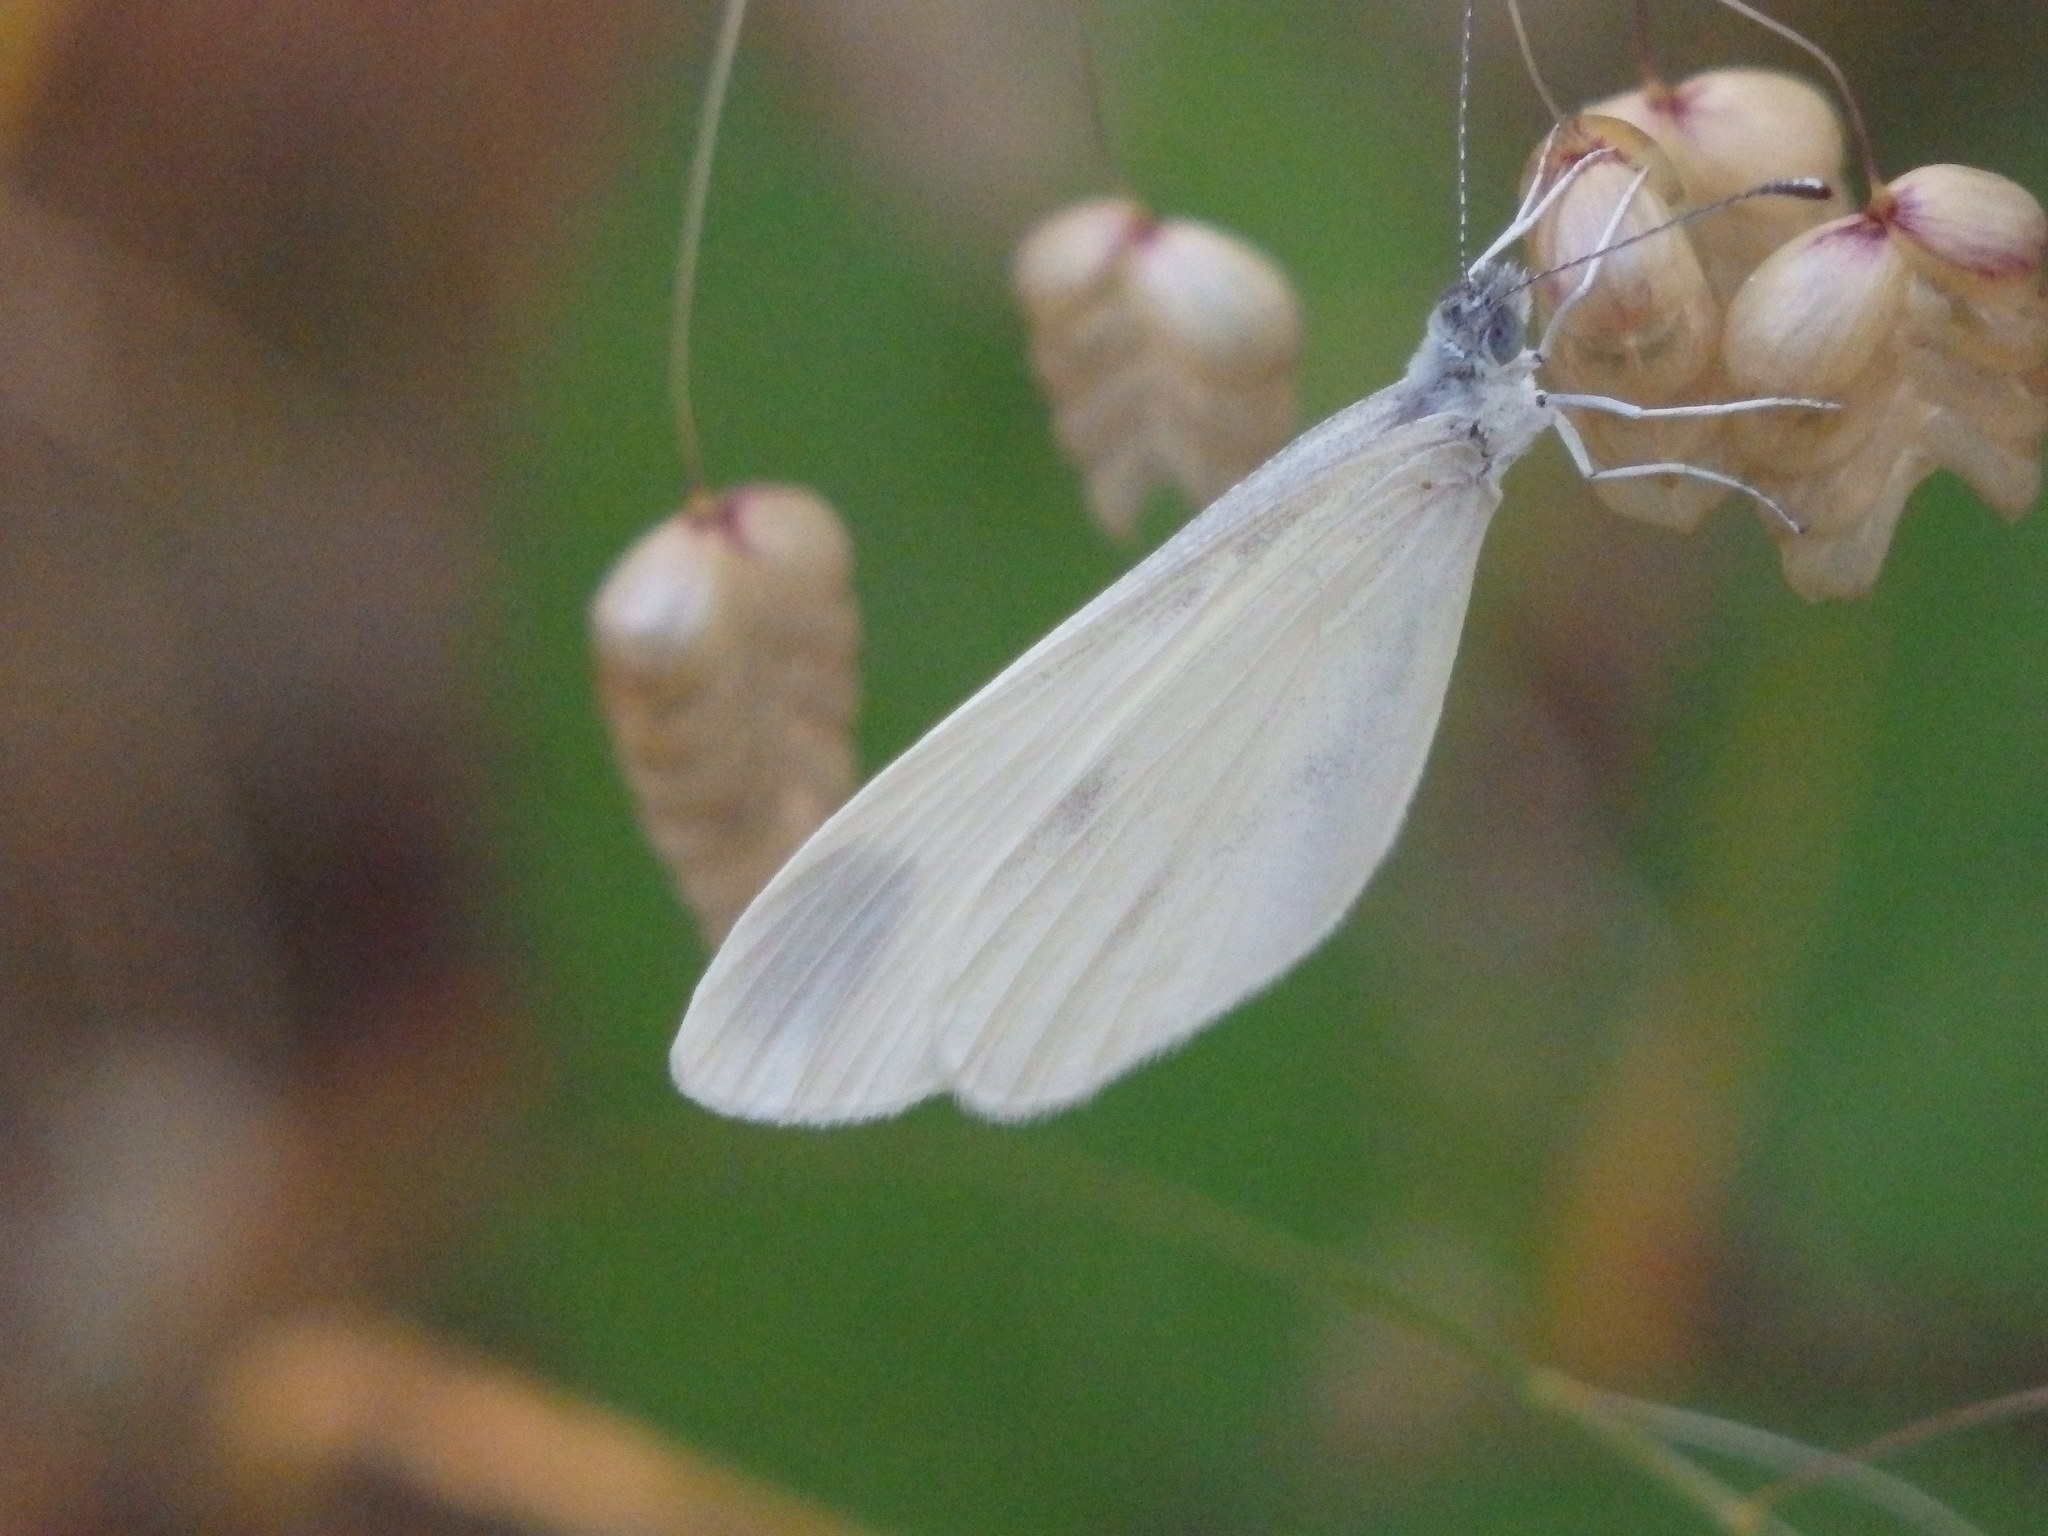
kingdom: Animalia
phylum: Arthropoda
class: Insecta
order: Lepidoptera
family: Pieridae
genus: Leptidea
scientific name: Leptidea sinapis
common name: Wood white
